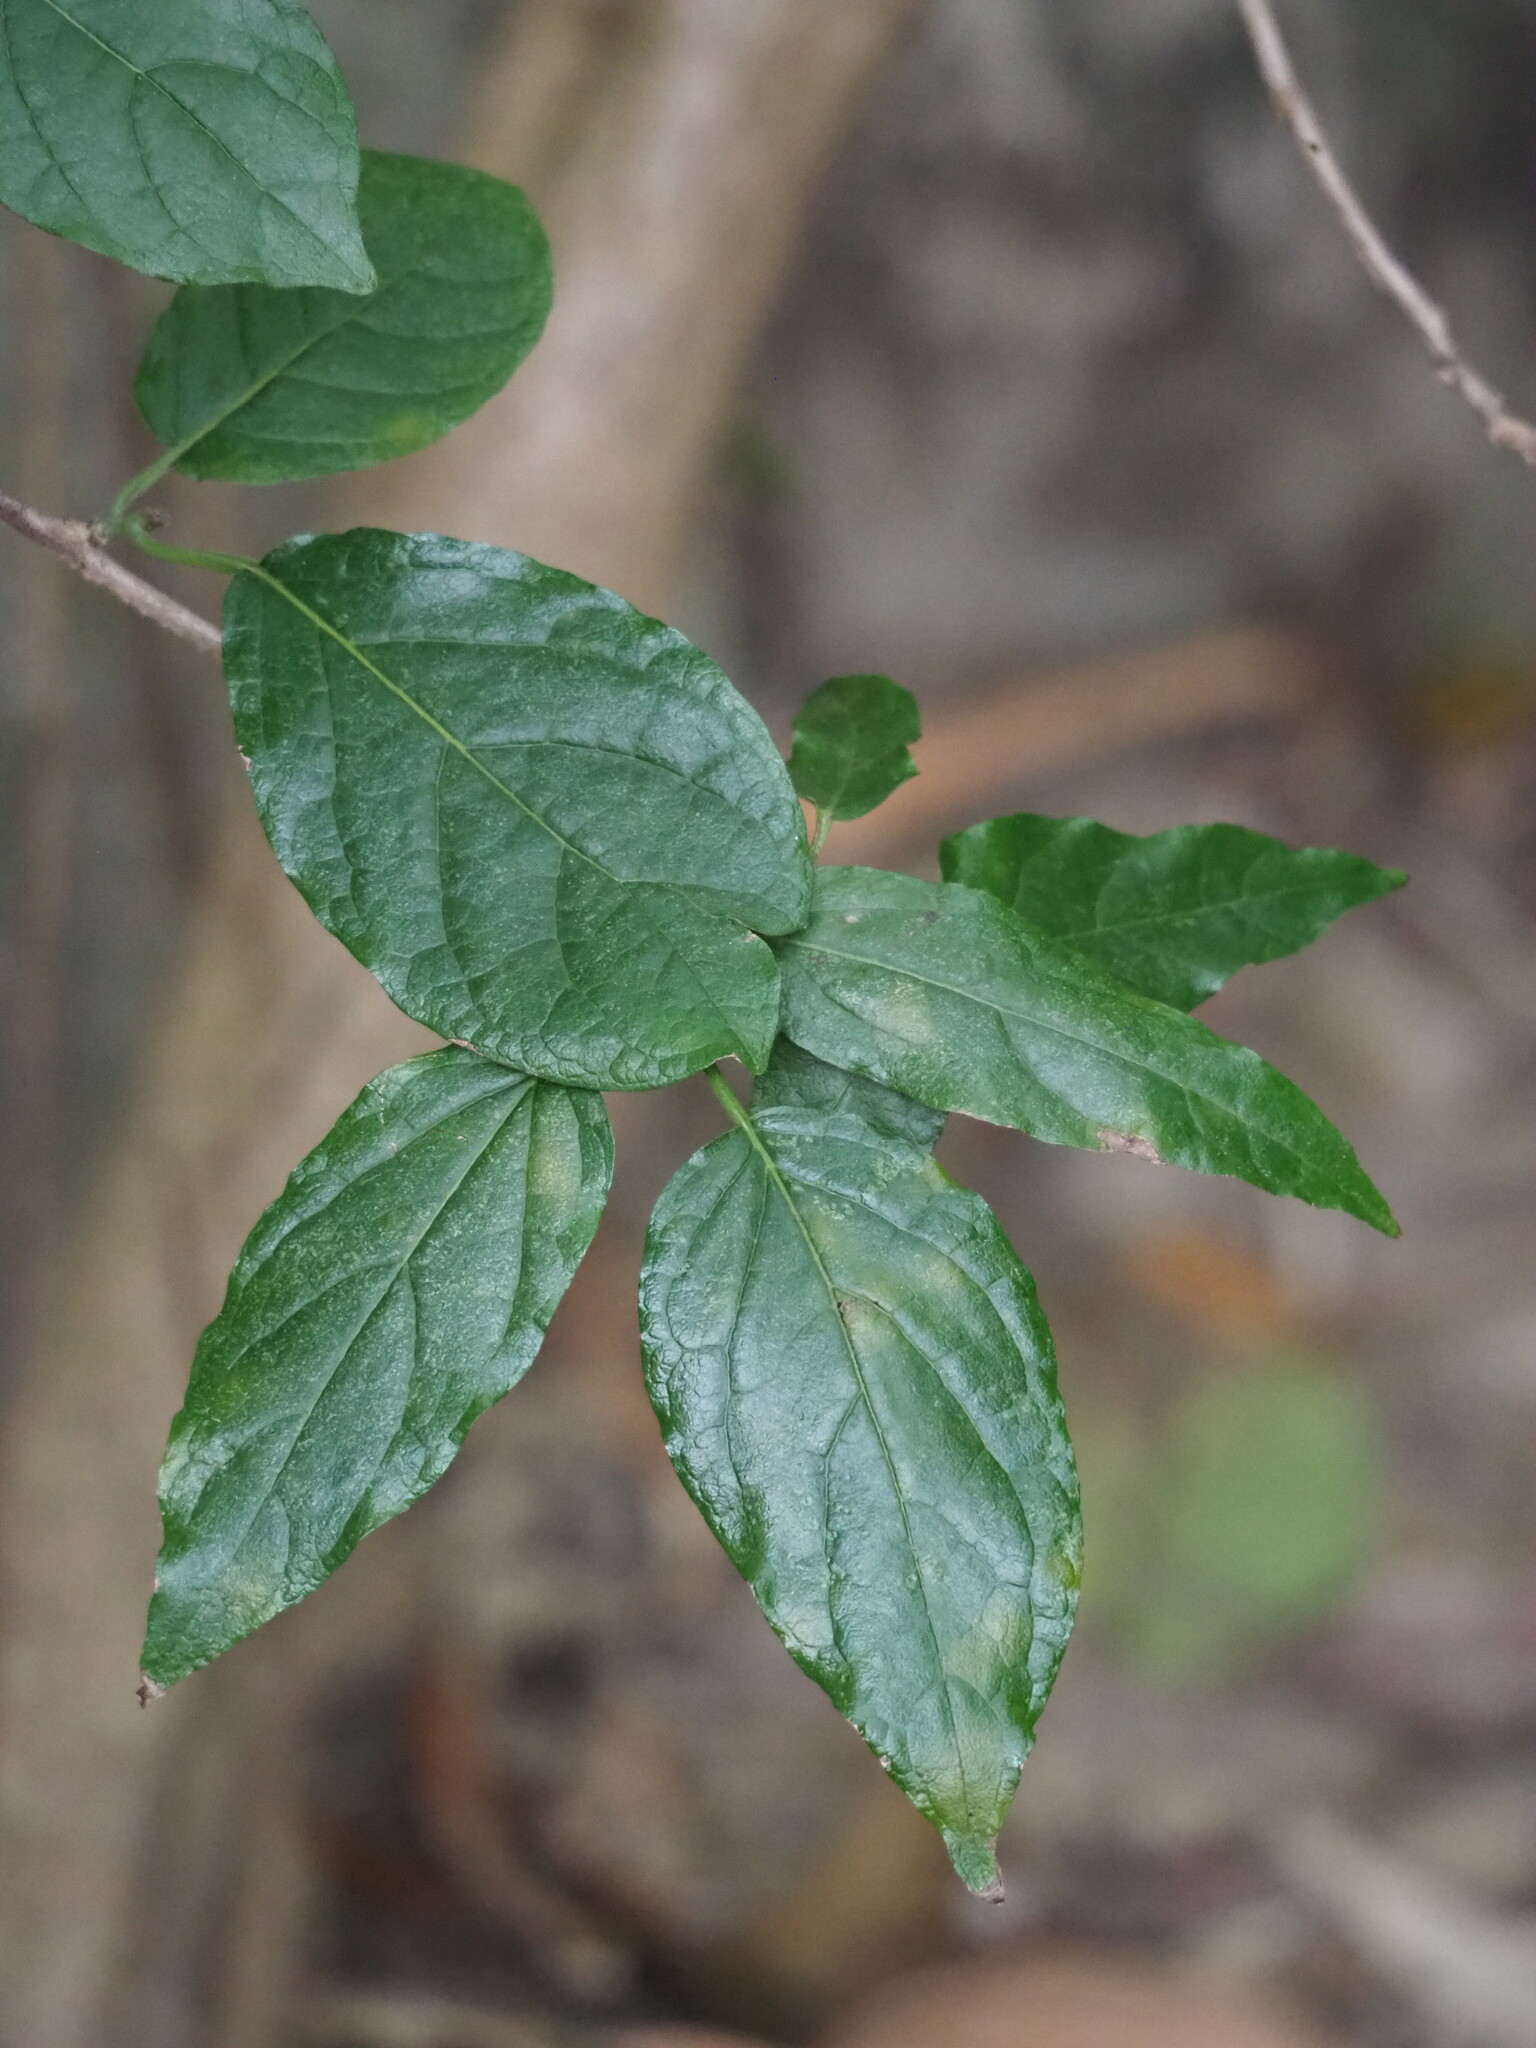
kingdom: Plantae
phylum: Tracheophyta
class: Magnoliopsida
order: Boraginales
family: Ehretiaceae
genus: Ehretia
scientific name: Ehretia resinosa
